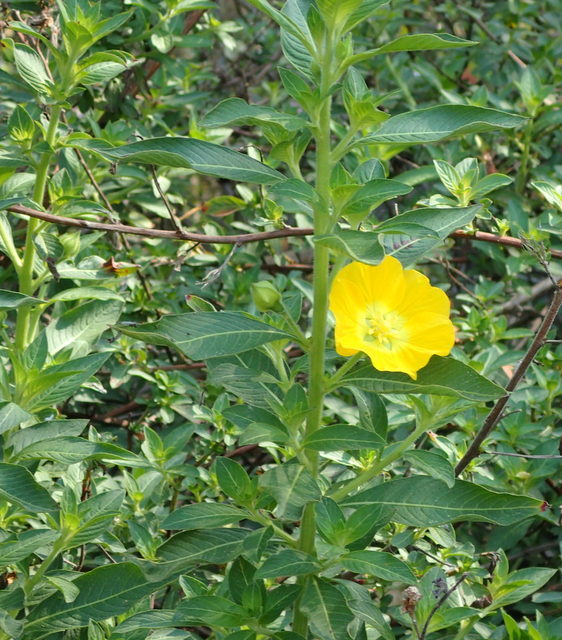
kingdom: Plantae
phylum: Tracheophyta
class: Magnoliopsida
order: Myrtales
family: Onagraceae
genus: Ludwigia
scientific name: Ludwigia peruviana
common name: Peruvian primrose-willow
